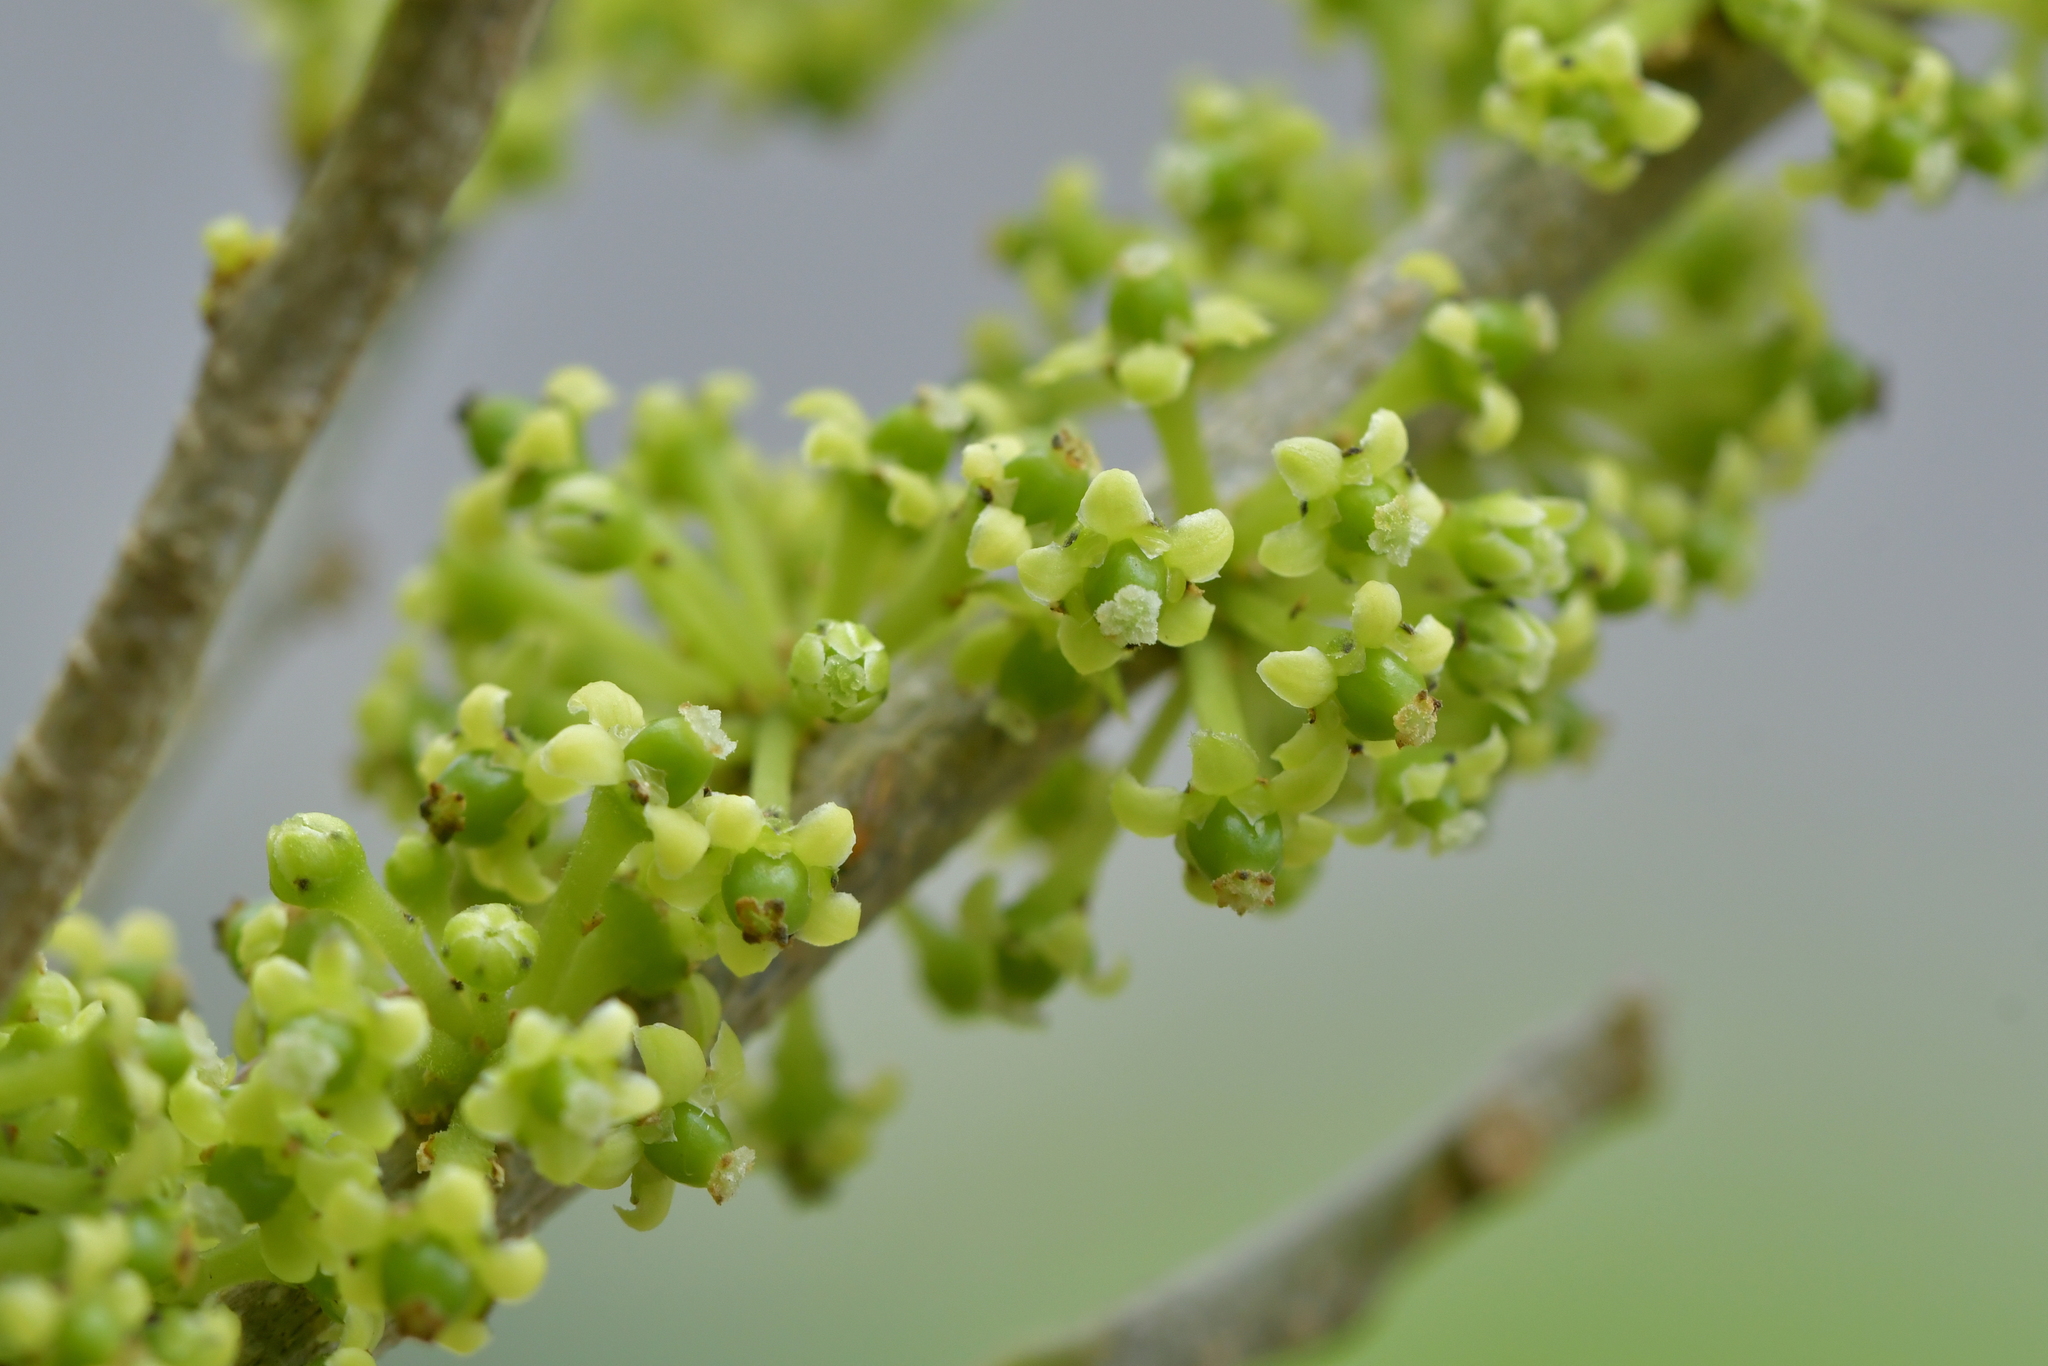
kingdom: Plantae
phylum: Tracheophyta
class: Magnoliopsida
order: Malpighiales
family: Violaceae
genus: Melicytus
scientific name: Melicytus ramiflorus
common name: Mahoe
